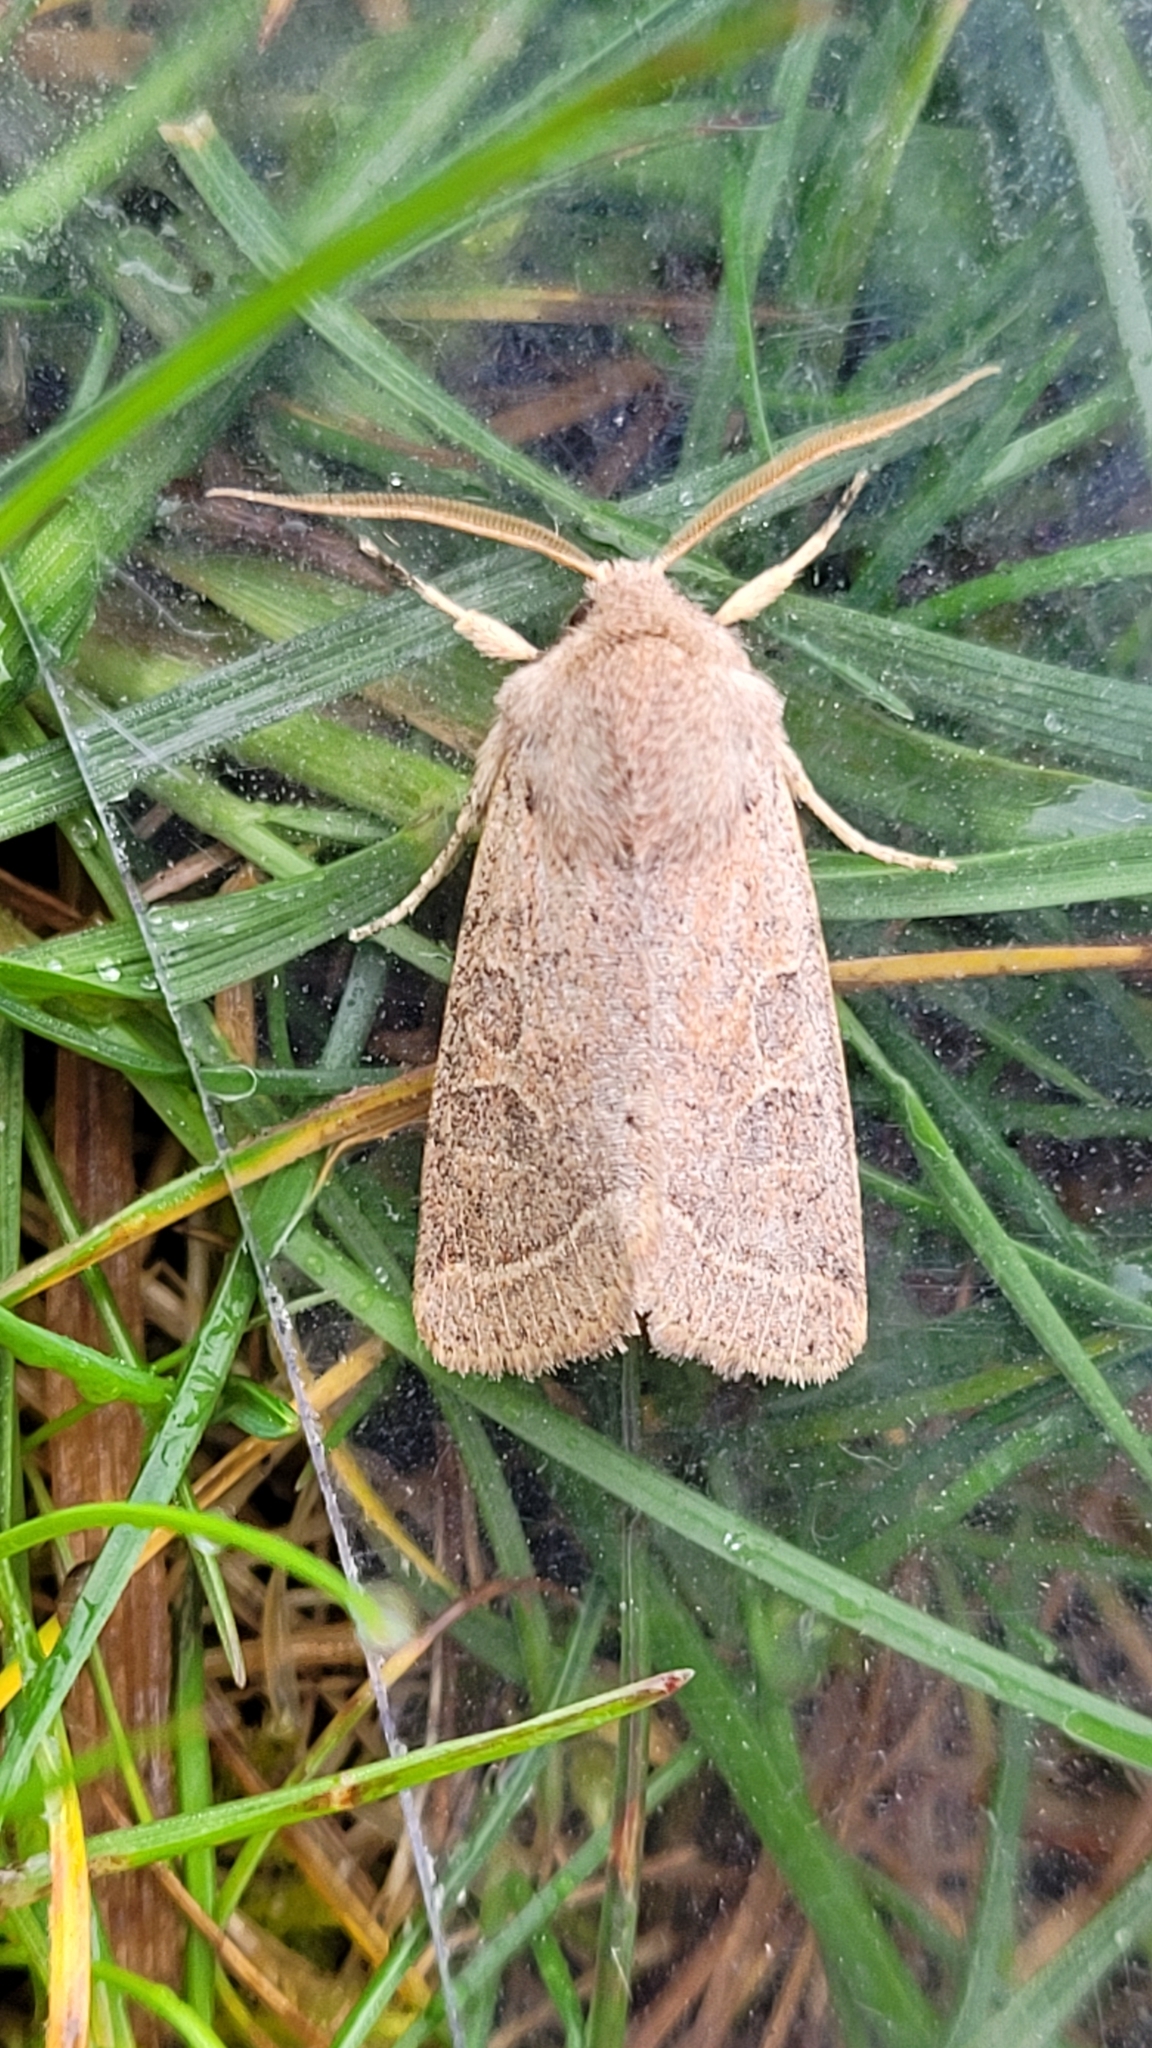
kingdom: Animalia
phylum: Arthropoda
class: Insecta
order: Lepidoptera
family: Noctuidae
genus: Orthosia
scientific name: Orthosia cerasi
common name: Common quaker
